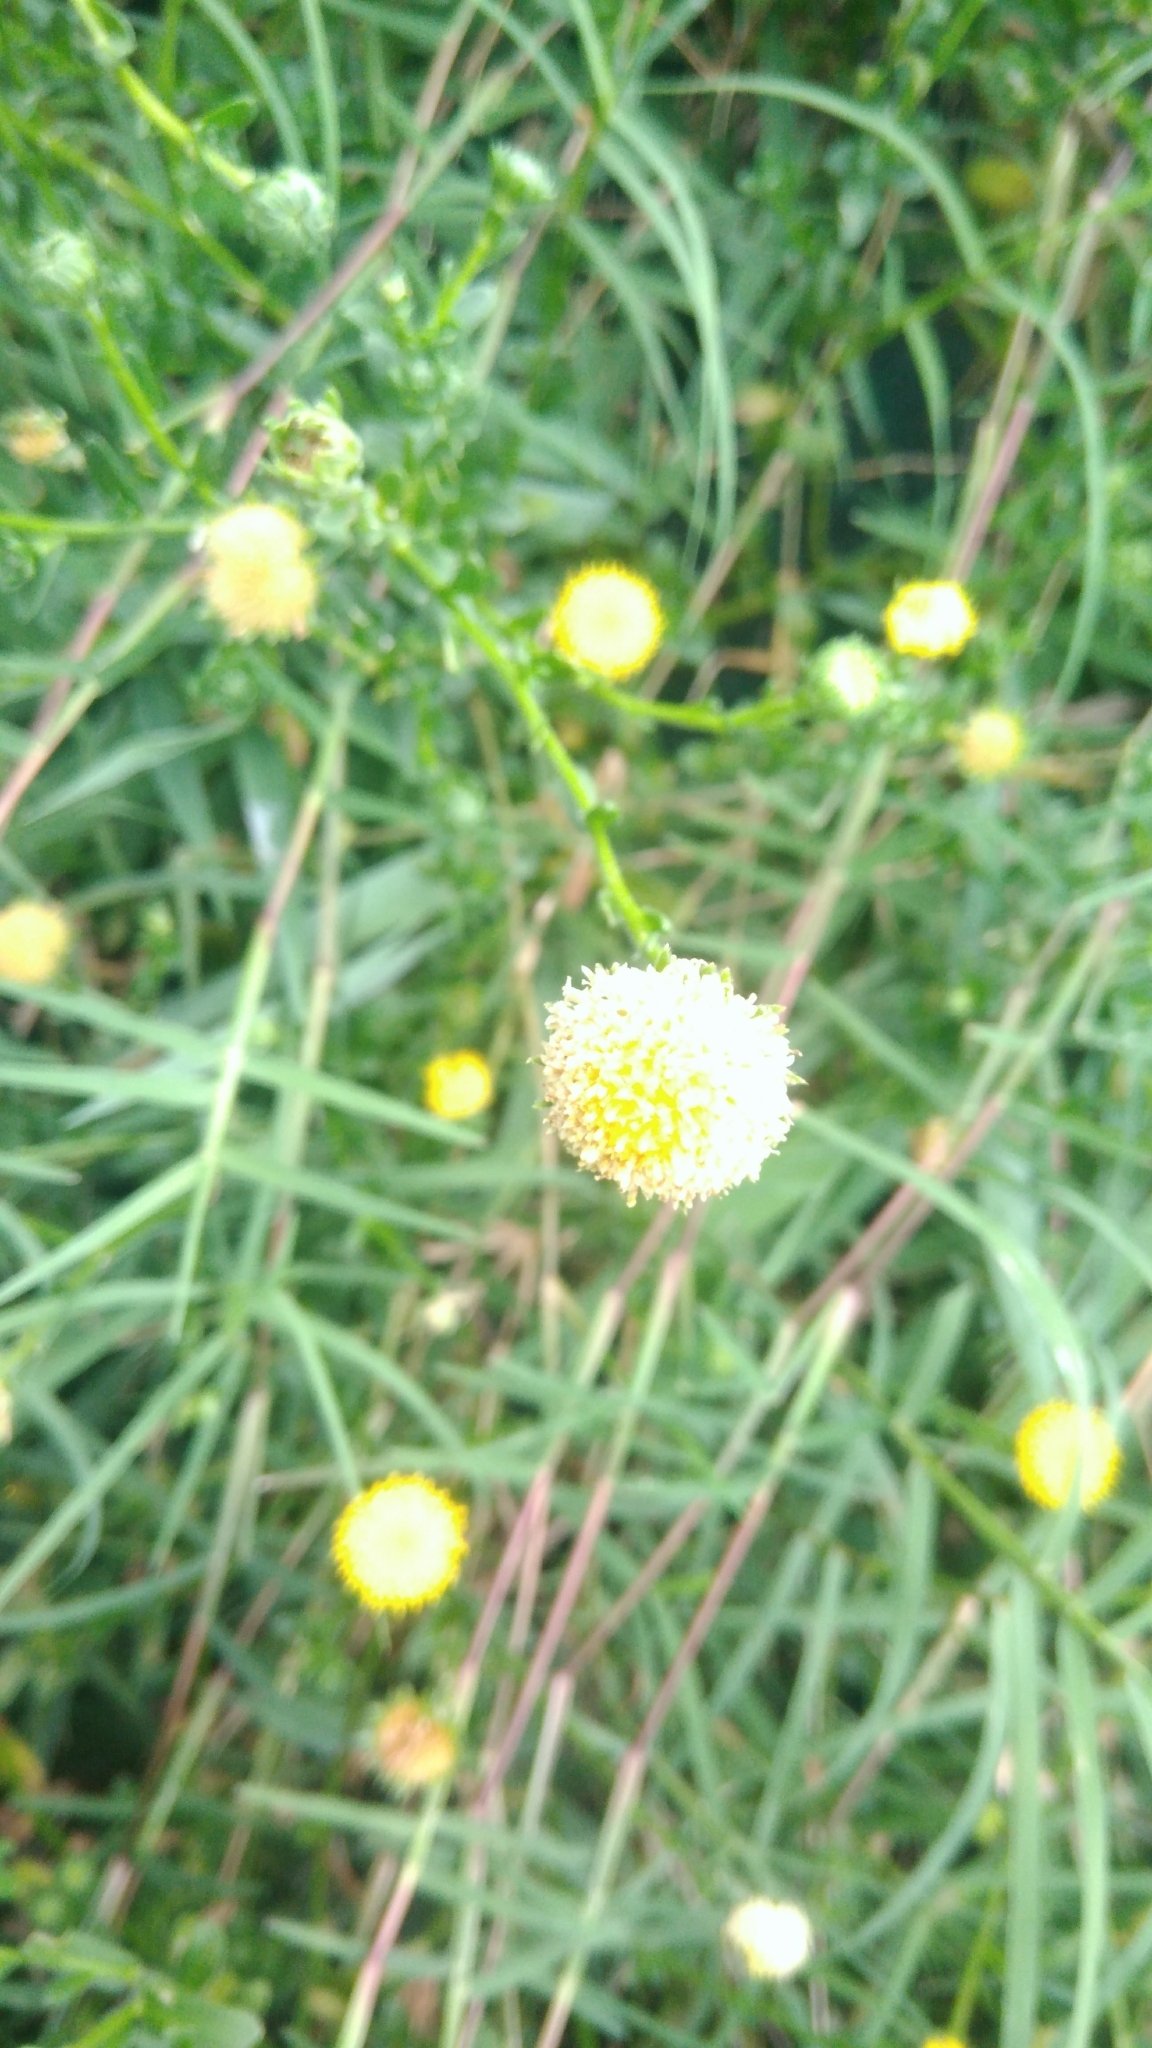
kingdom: Plantae
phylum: Tracheophyta
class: Magnoliopsida
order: Asterales
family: Asteraceae
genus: Heteropappus
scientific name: Heteropappus oldhamii
